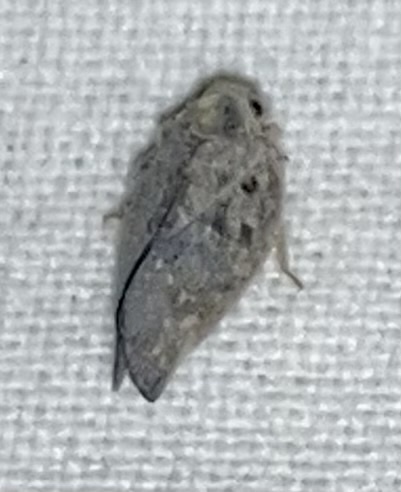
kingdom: Animalia
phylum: Arthropoda
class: Insecta
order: Hemiptera
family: Flatidae
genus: Metcalfa
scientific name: Metcalfa pruinosa
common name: Citrus flatid planthopper
